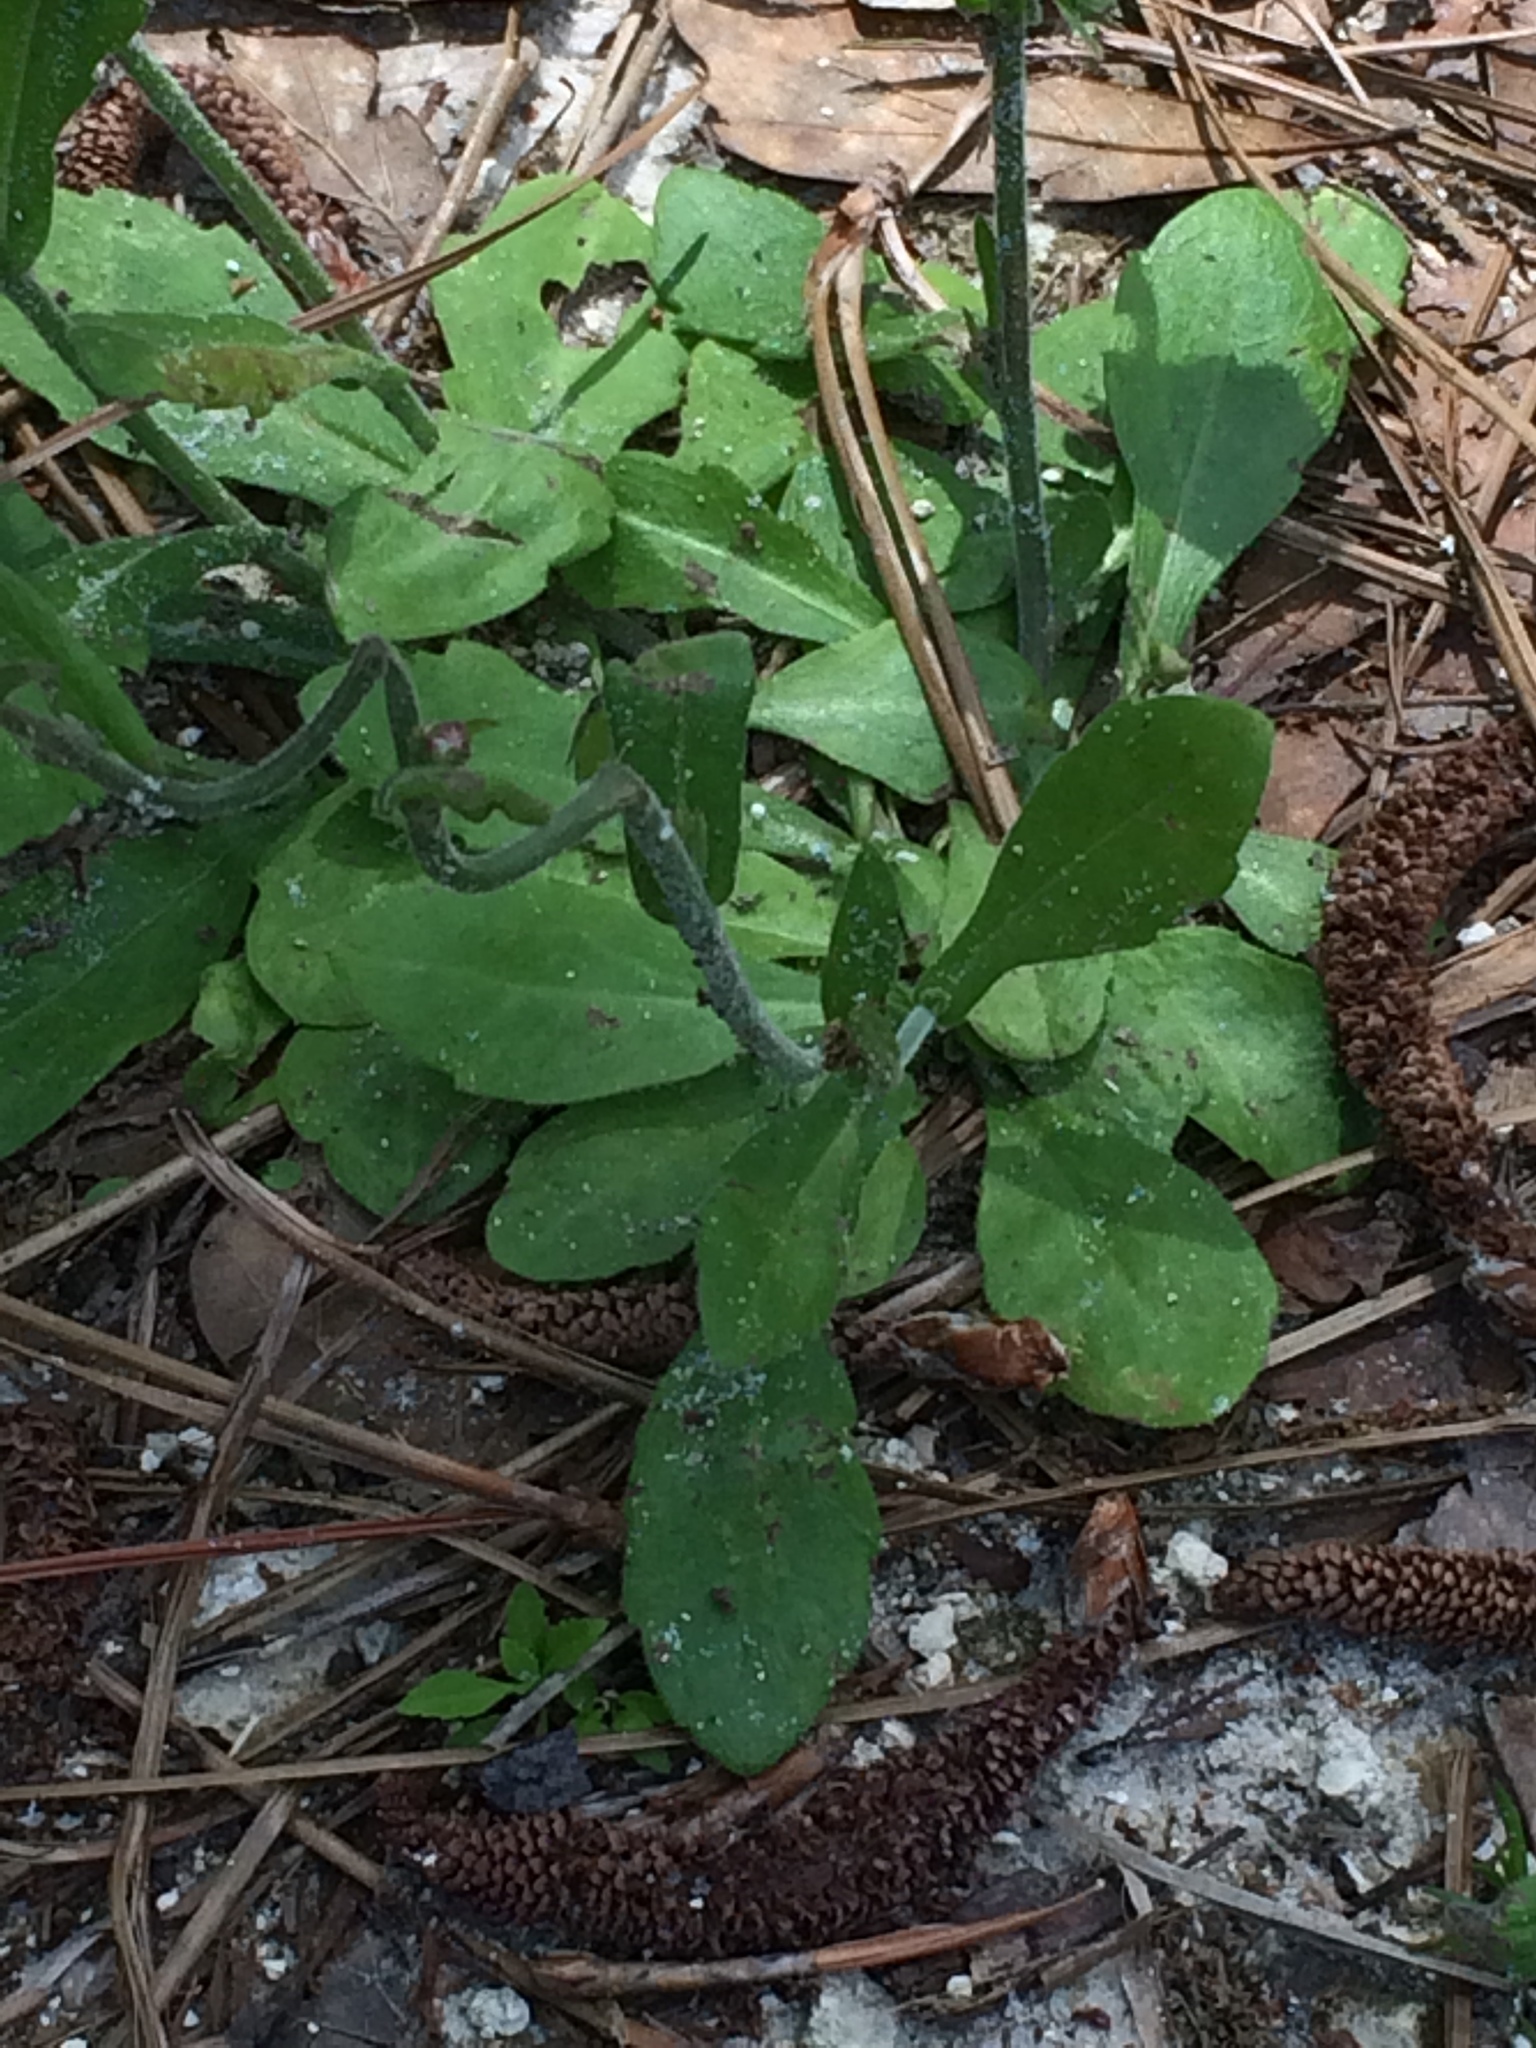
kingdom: Plantae
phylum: Tracheophyta
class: Magnoliopsida
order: Asterales
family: Asteraceae
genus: Erigeron
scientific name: Erigeron quercifolius
